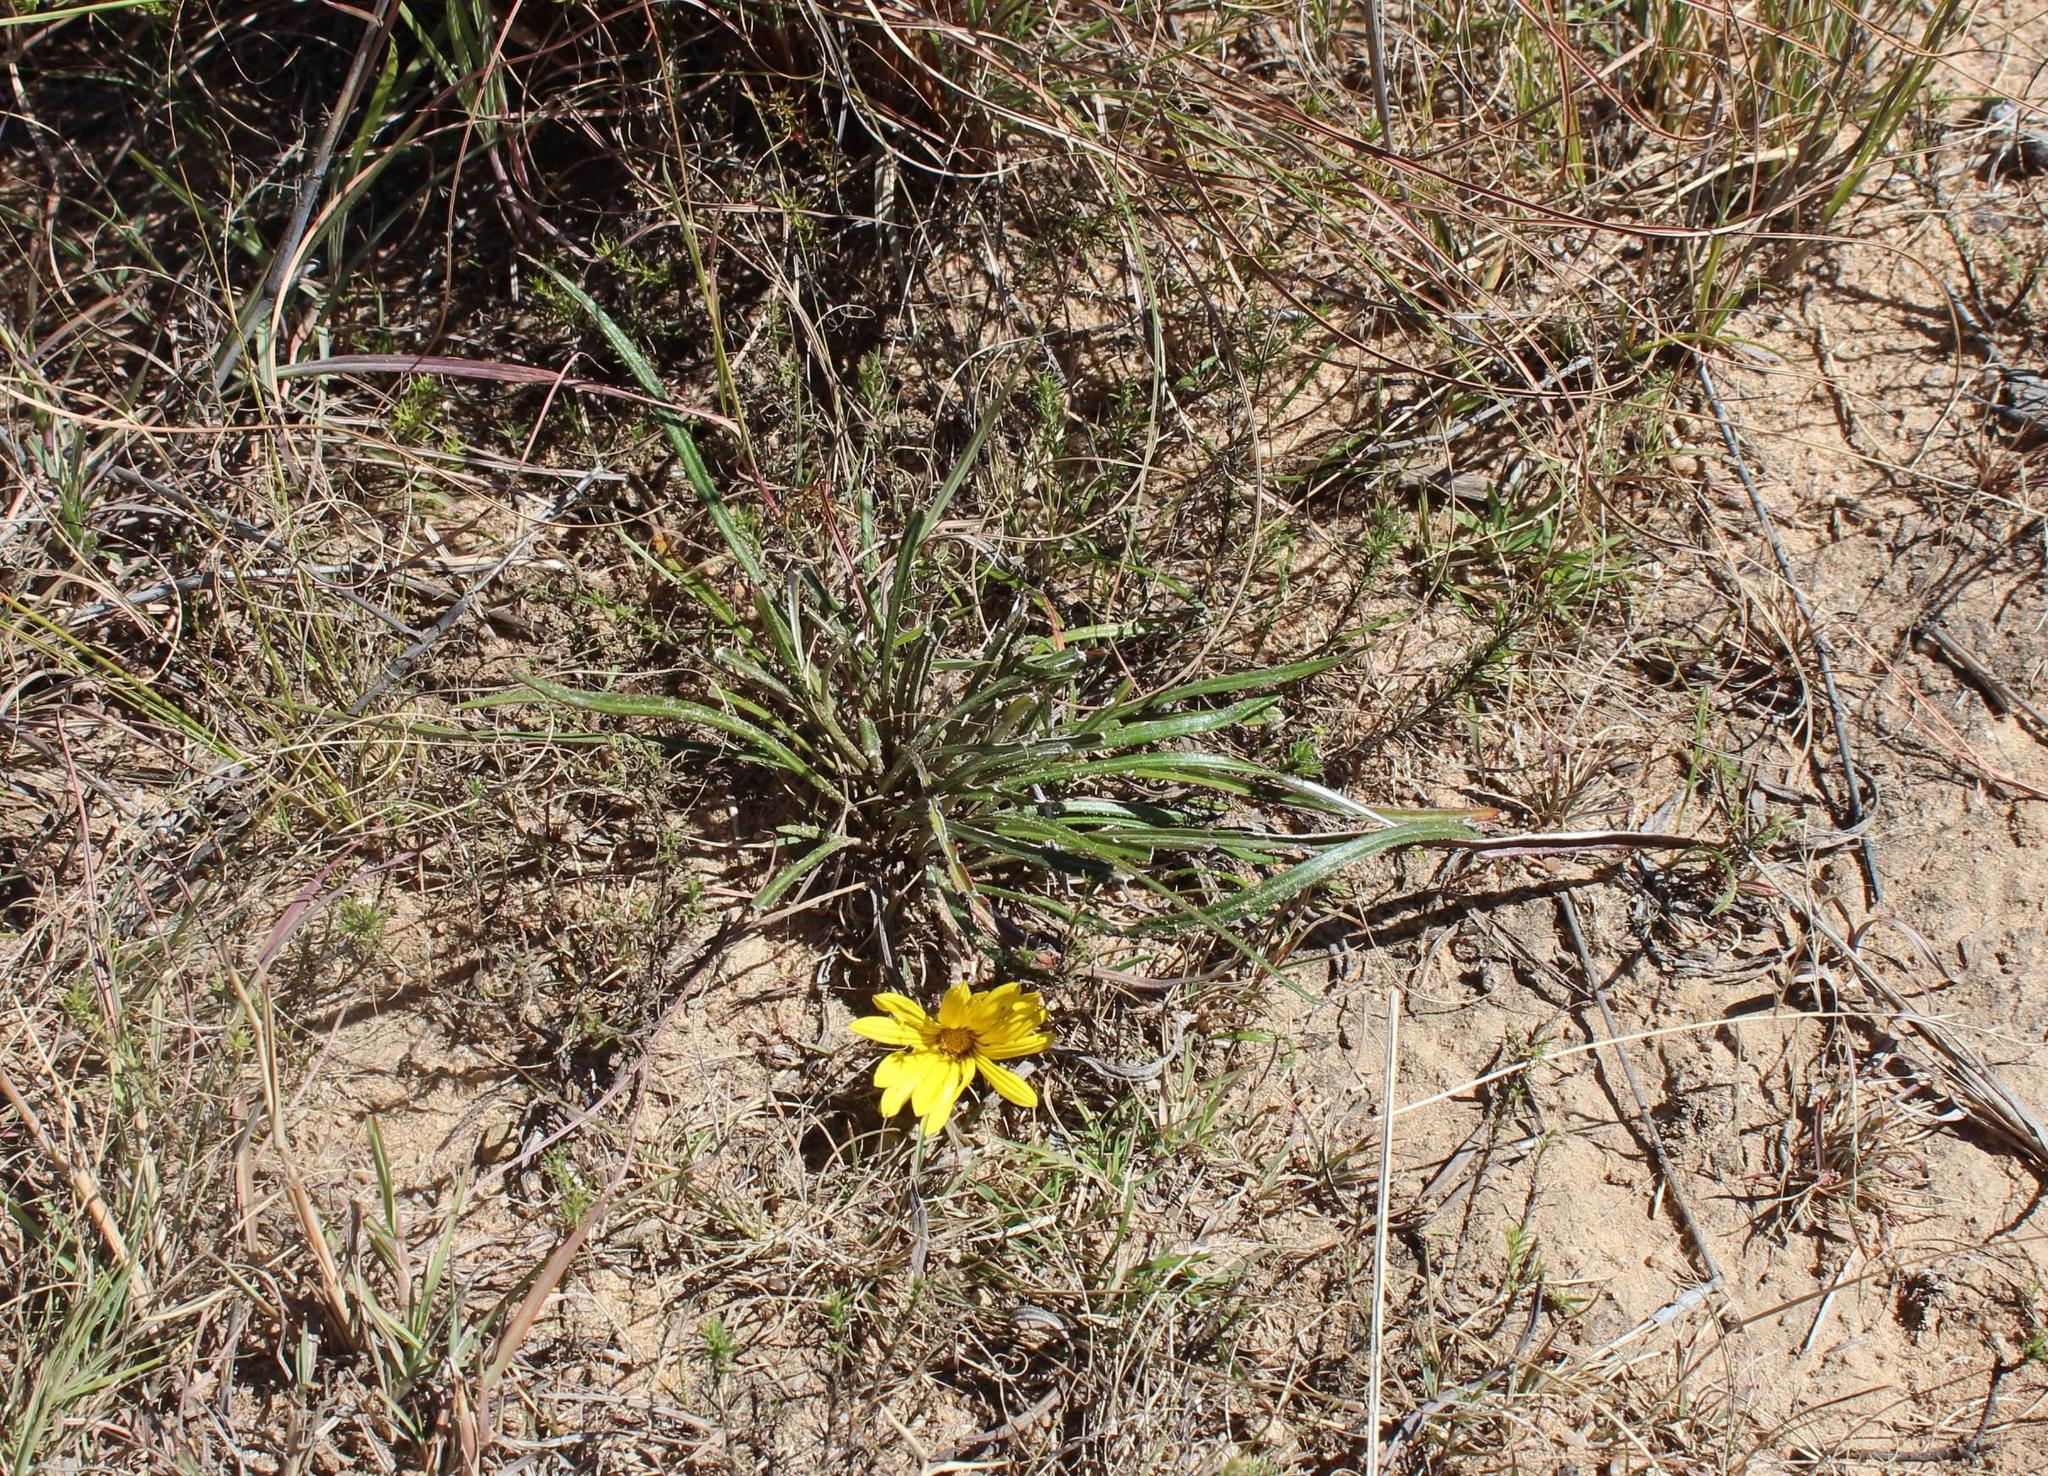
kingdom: Plantae
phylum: Tracheophyta
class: Magnoliopsida
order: Asterales
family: Asteraceae
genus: Gazania
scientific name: Gazania krebsiana
